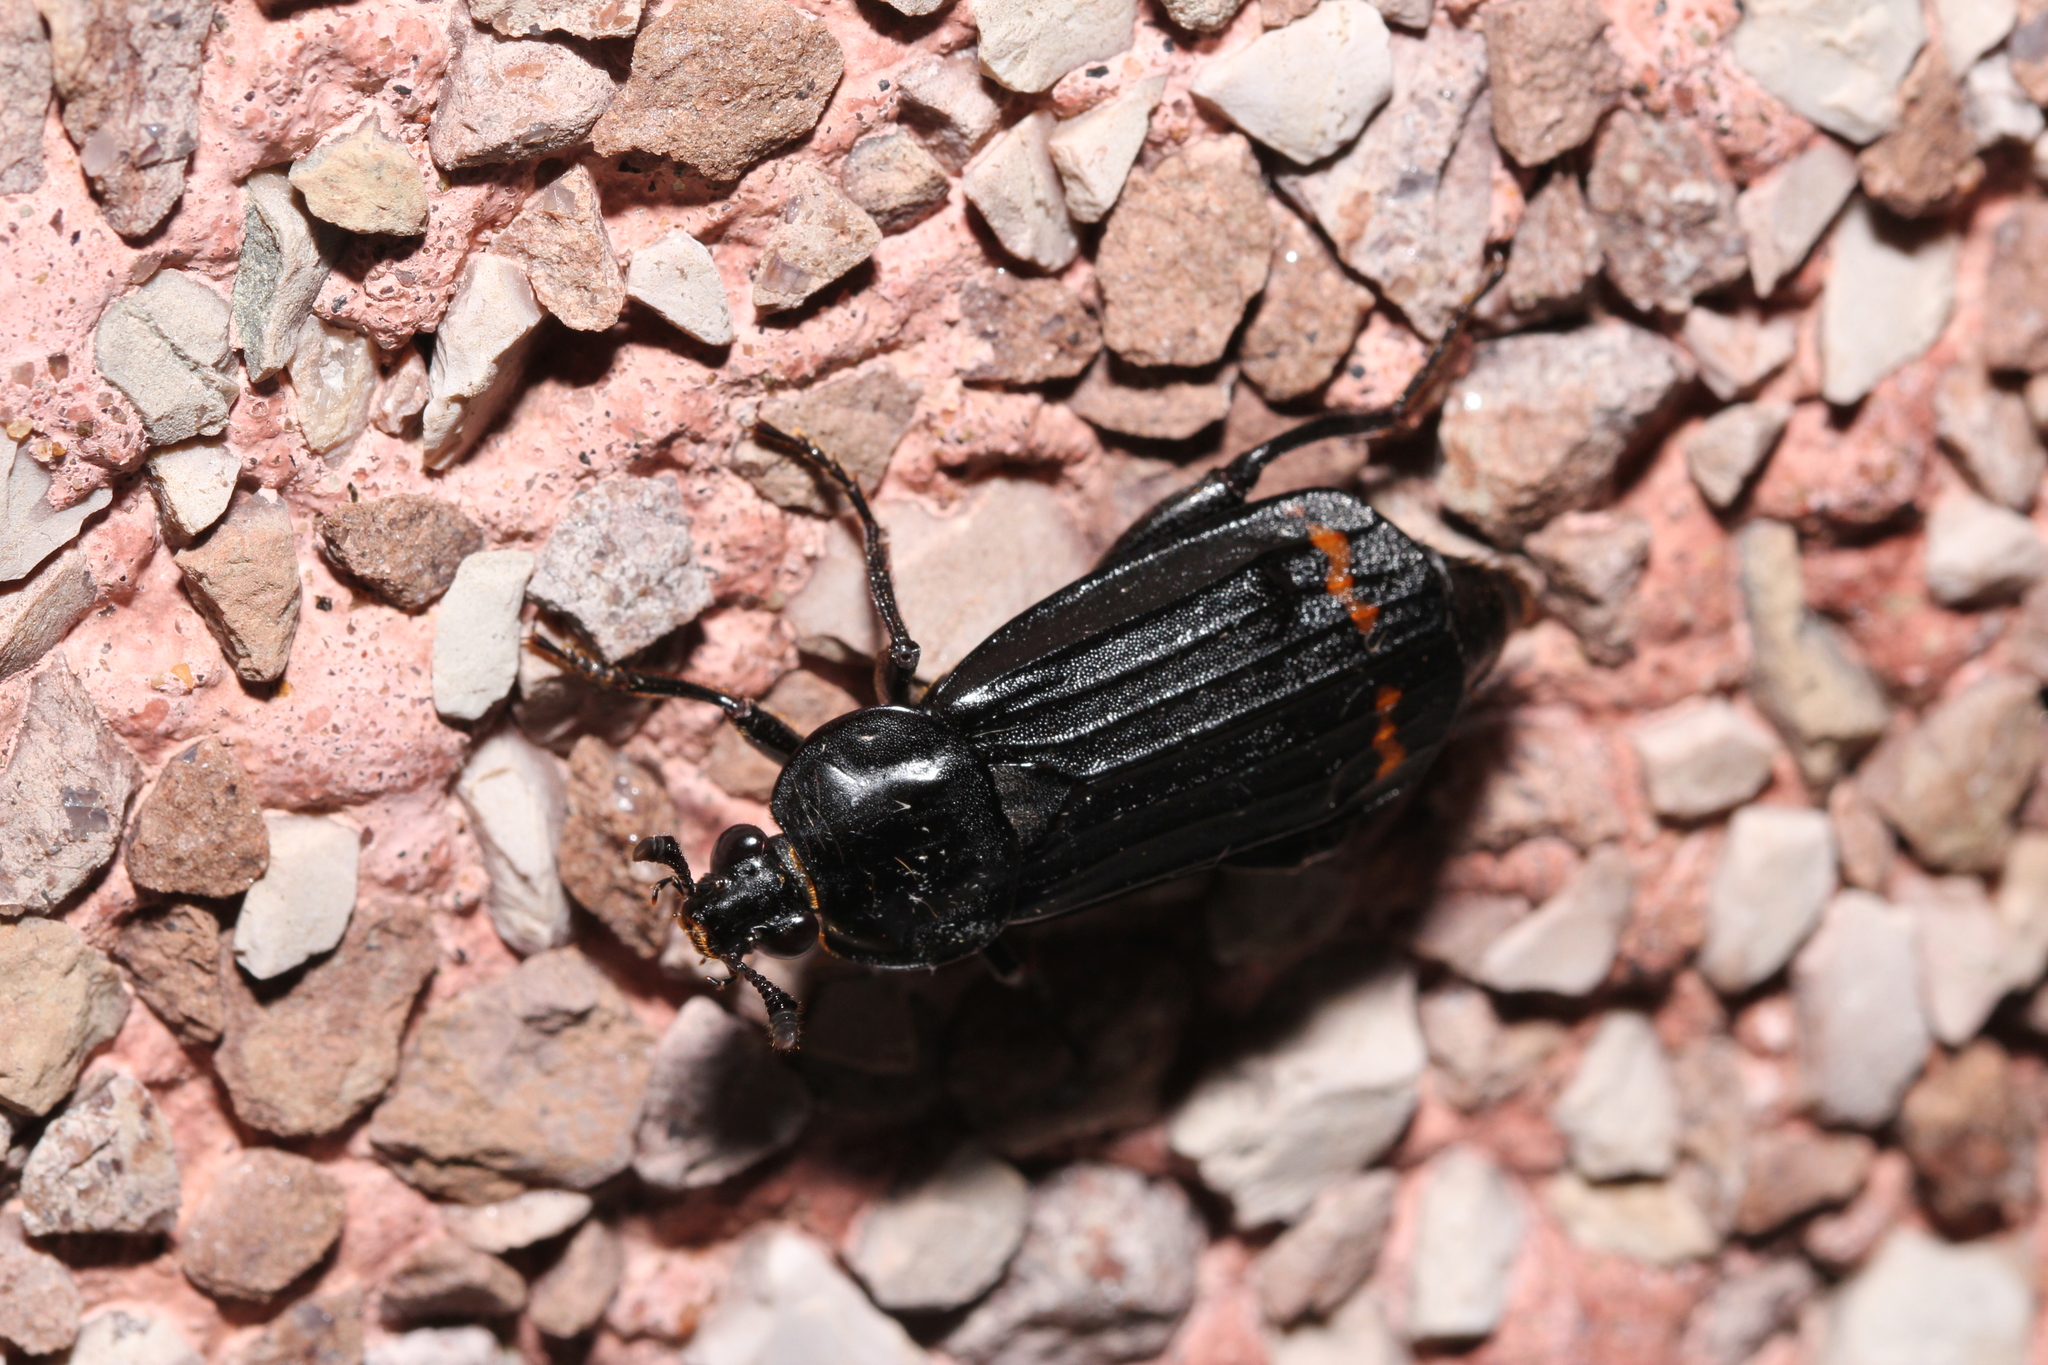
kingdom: Animalia
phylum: Arthropoda
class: Insecta
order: Coleoptera
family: Staphylinidae
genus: Necrodes
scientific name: Necrodes surinamensis
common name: Red-lined carrion beetle
